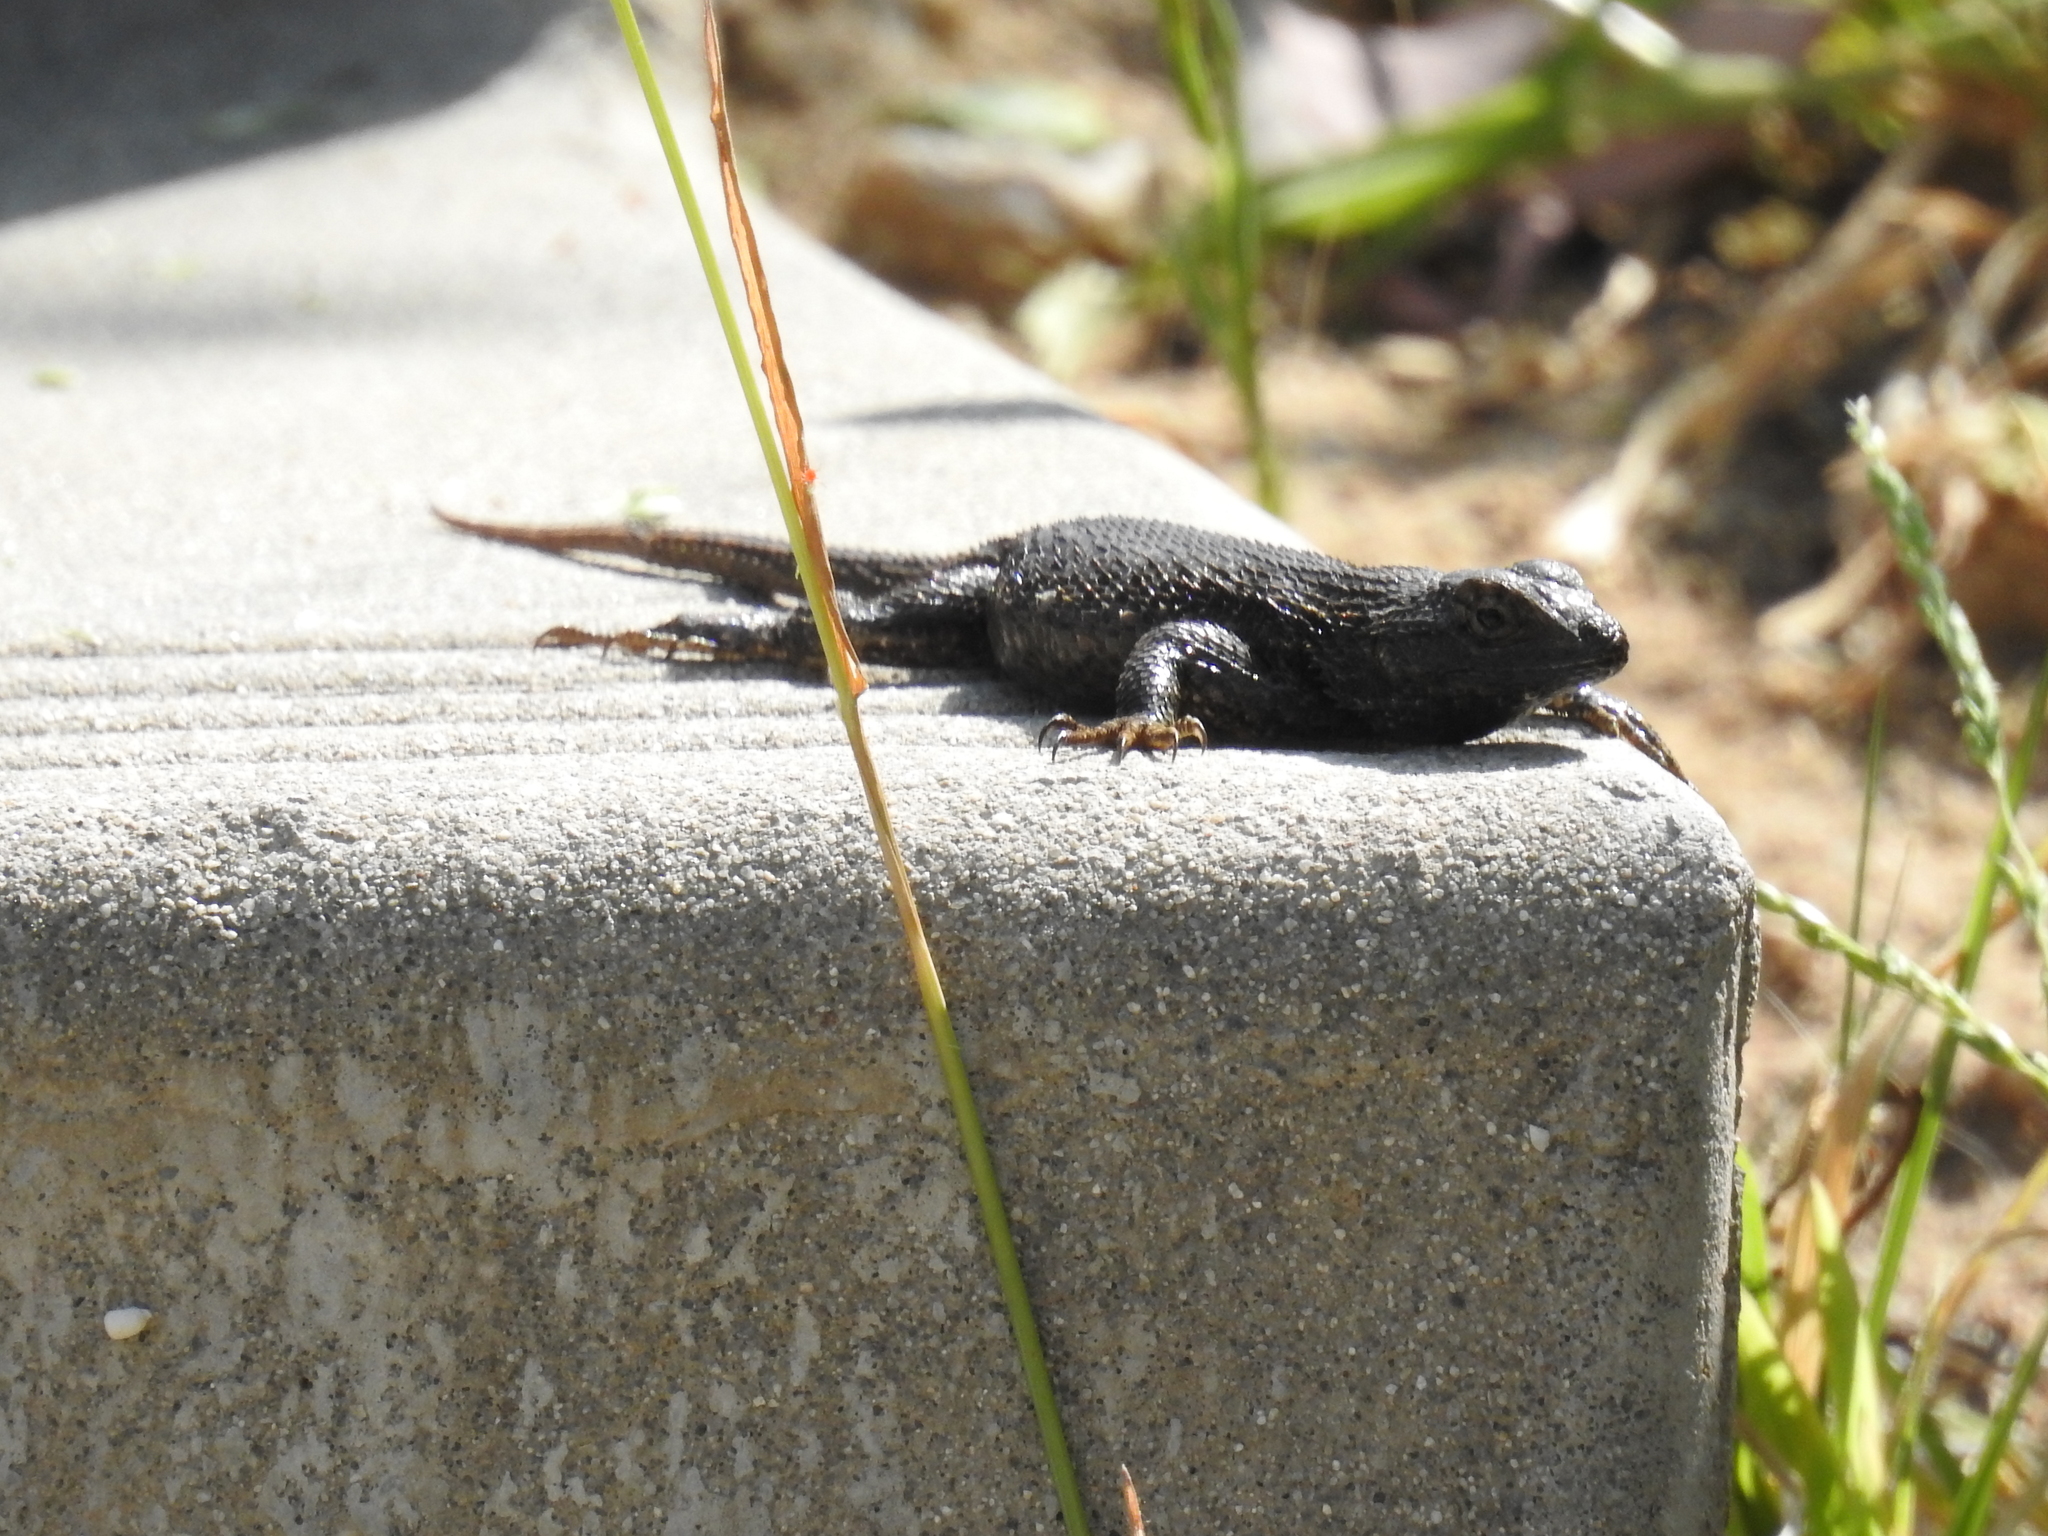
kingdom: Animalia
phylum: Chordata
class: Squamata
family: Phrynosomatidae
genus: Sceloporus
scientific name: Sceloporus occidentalis
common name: Western fence lizard
